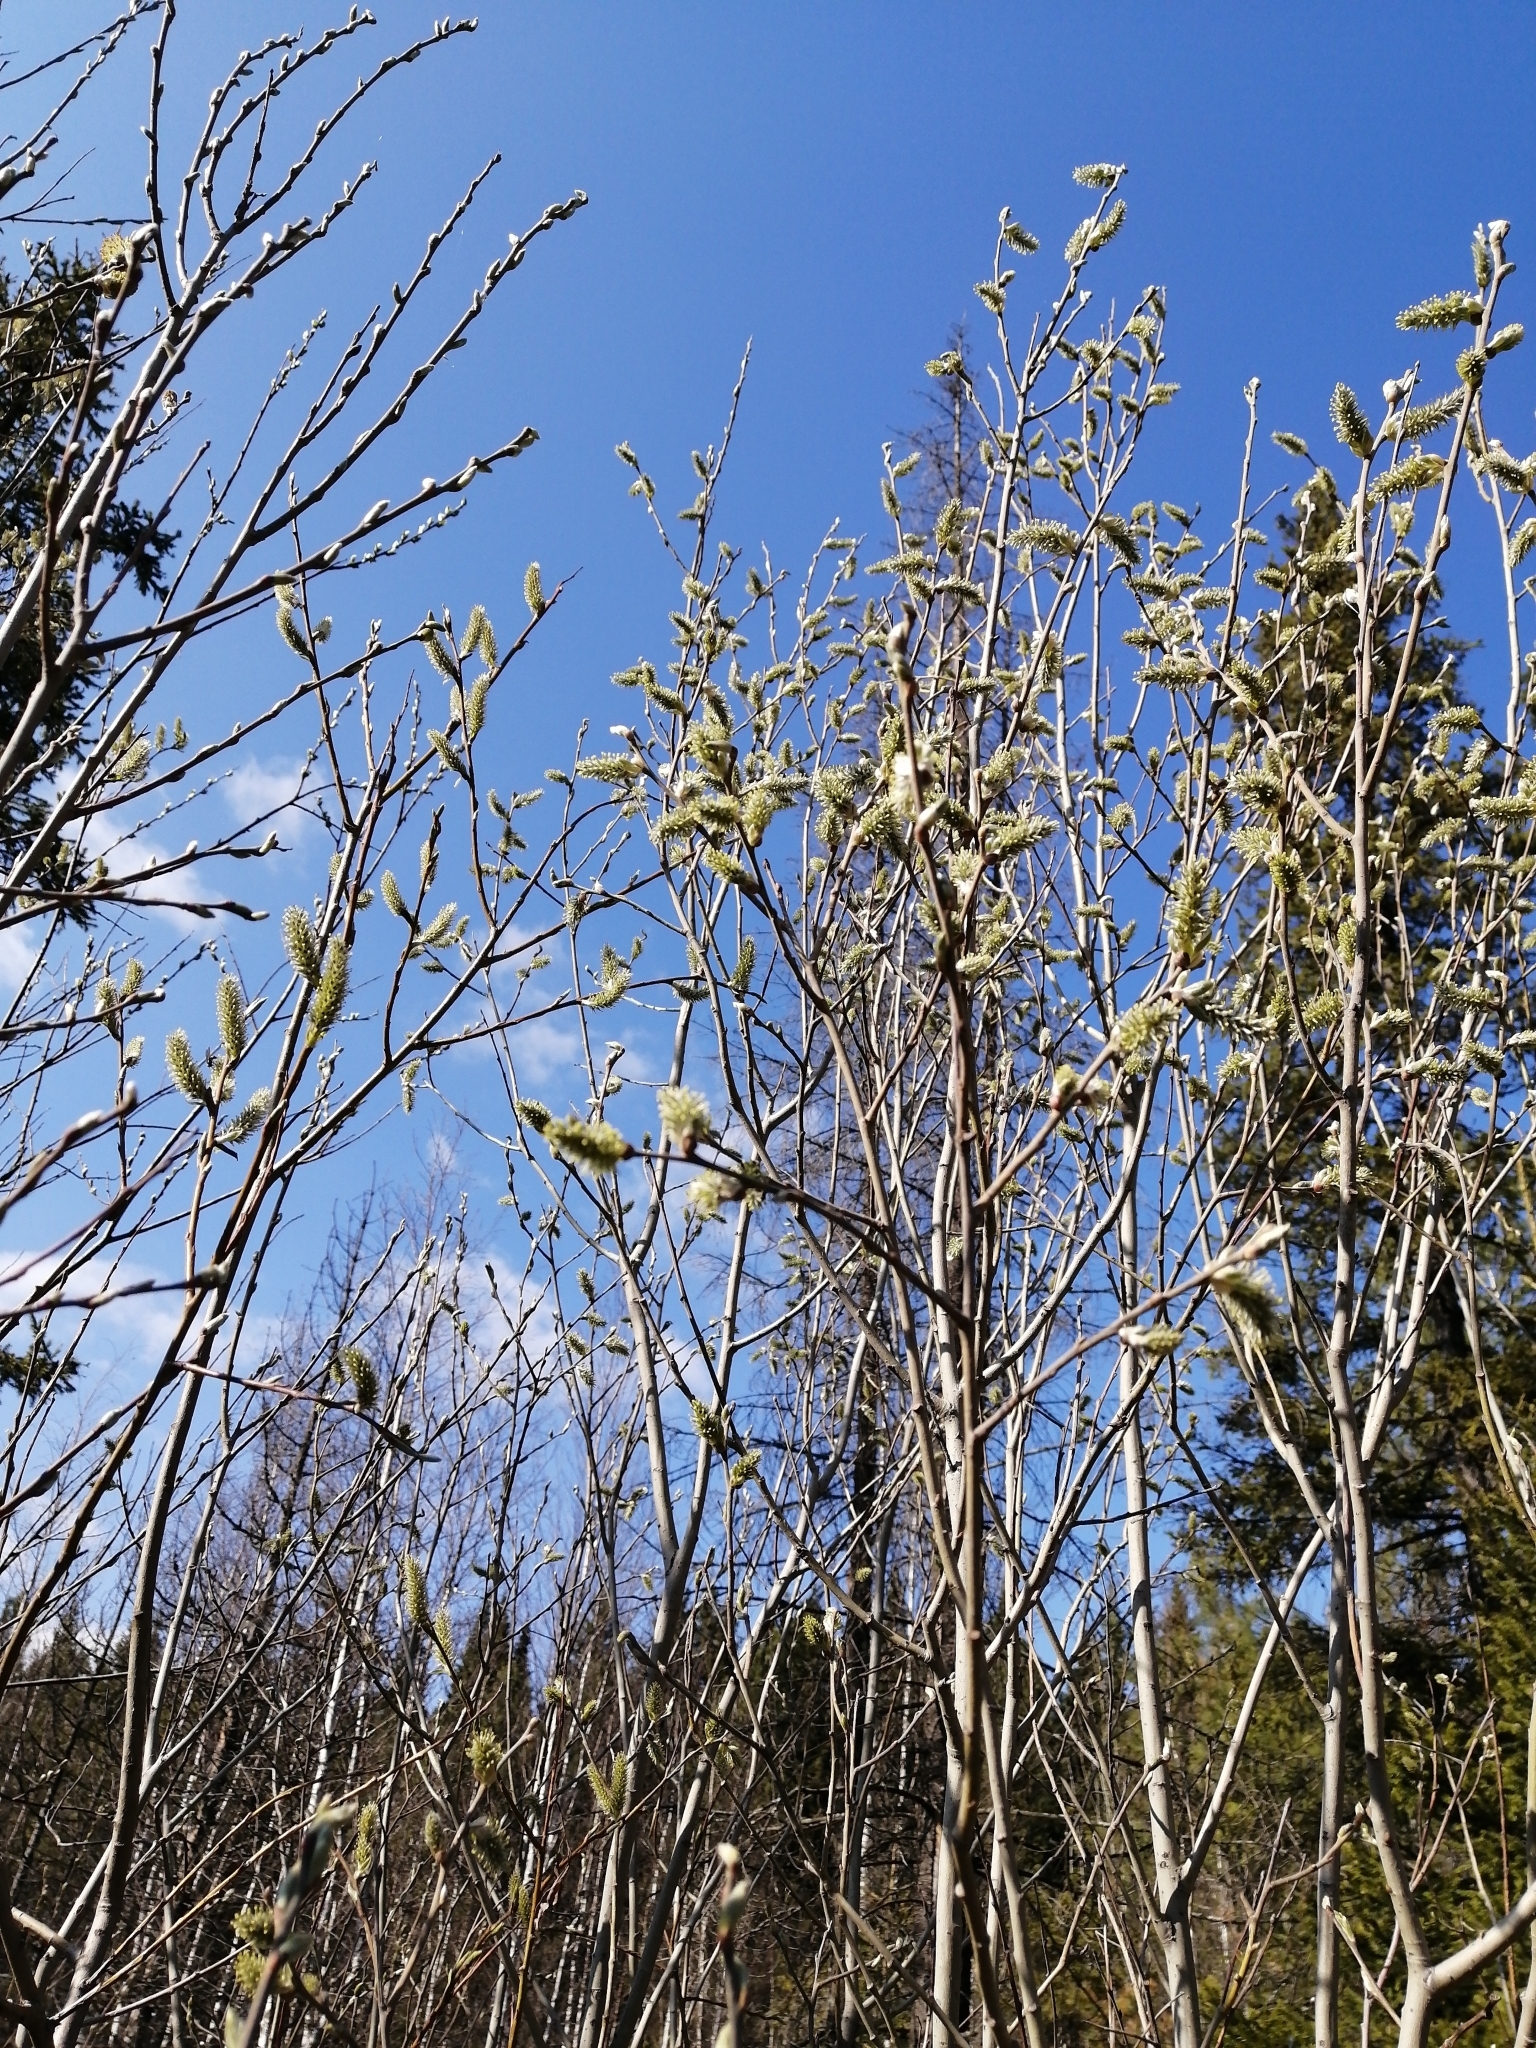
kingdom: Plantae
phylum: Tracheophyta
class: Magnoliopsida
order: Malpighiales
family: Salicaceae
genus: Salix
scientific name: Salix cinerea
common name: Common sallow
